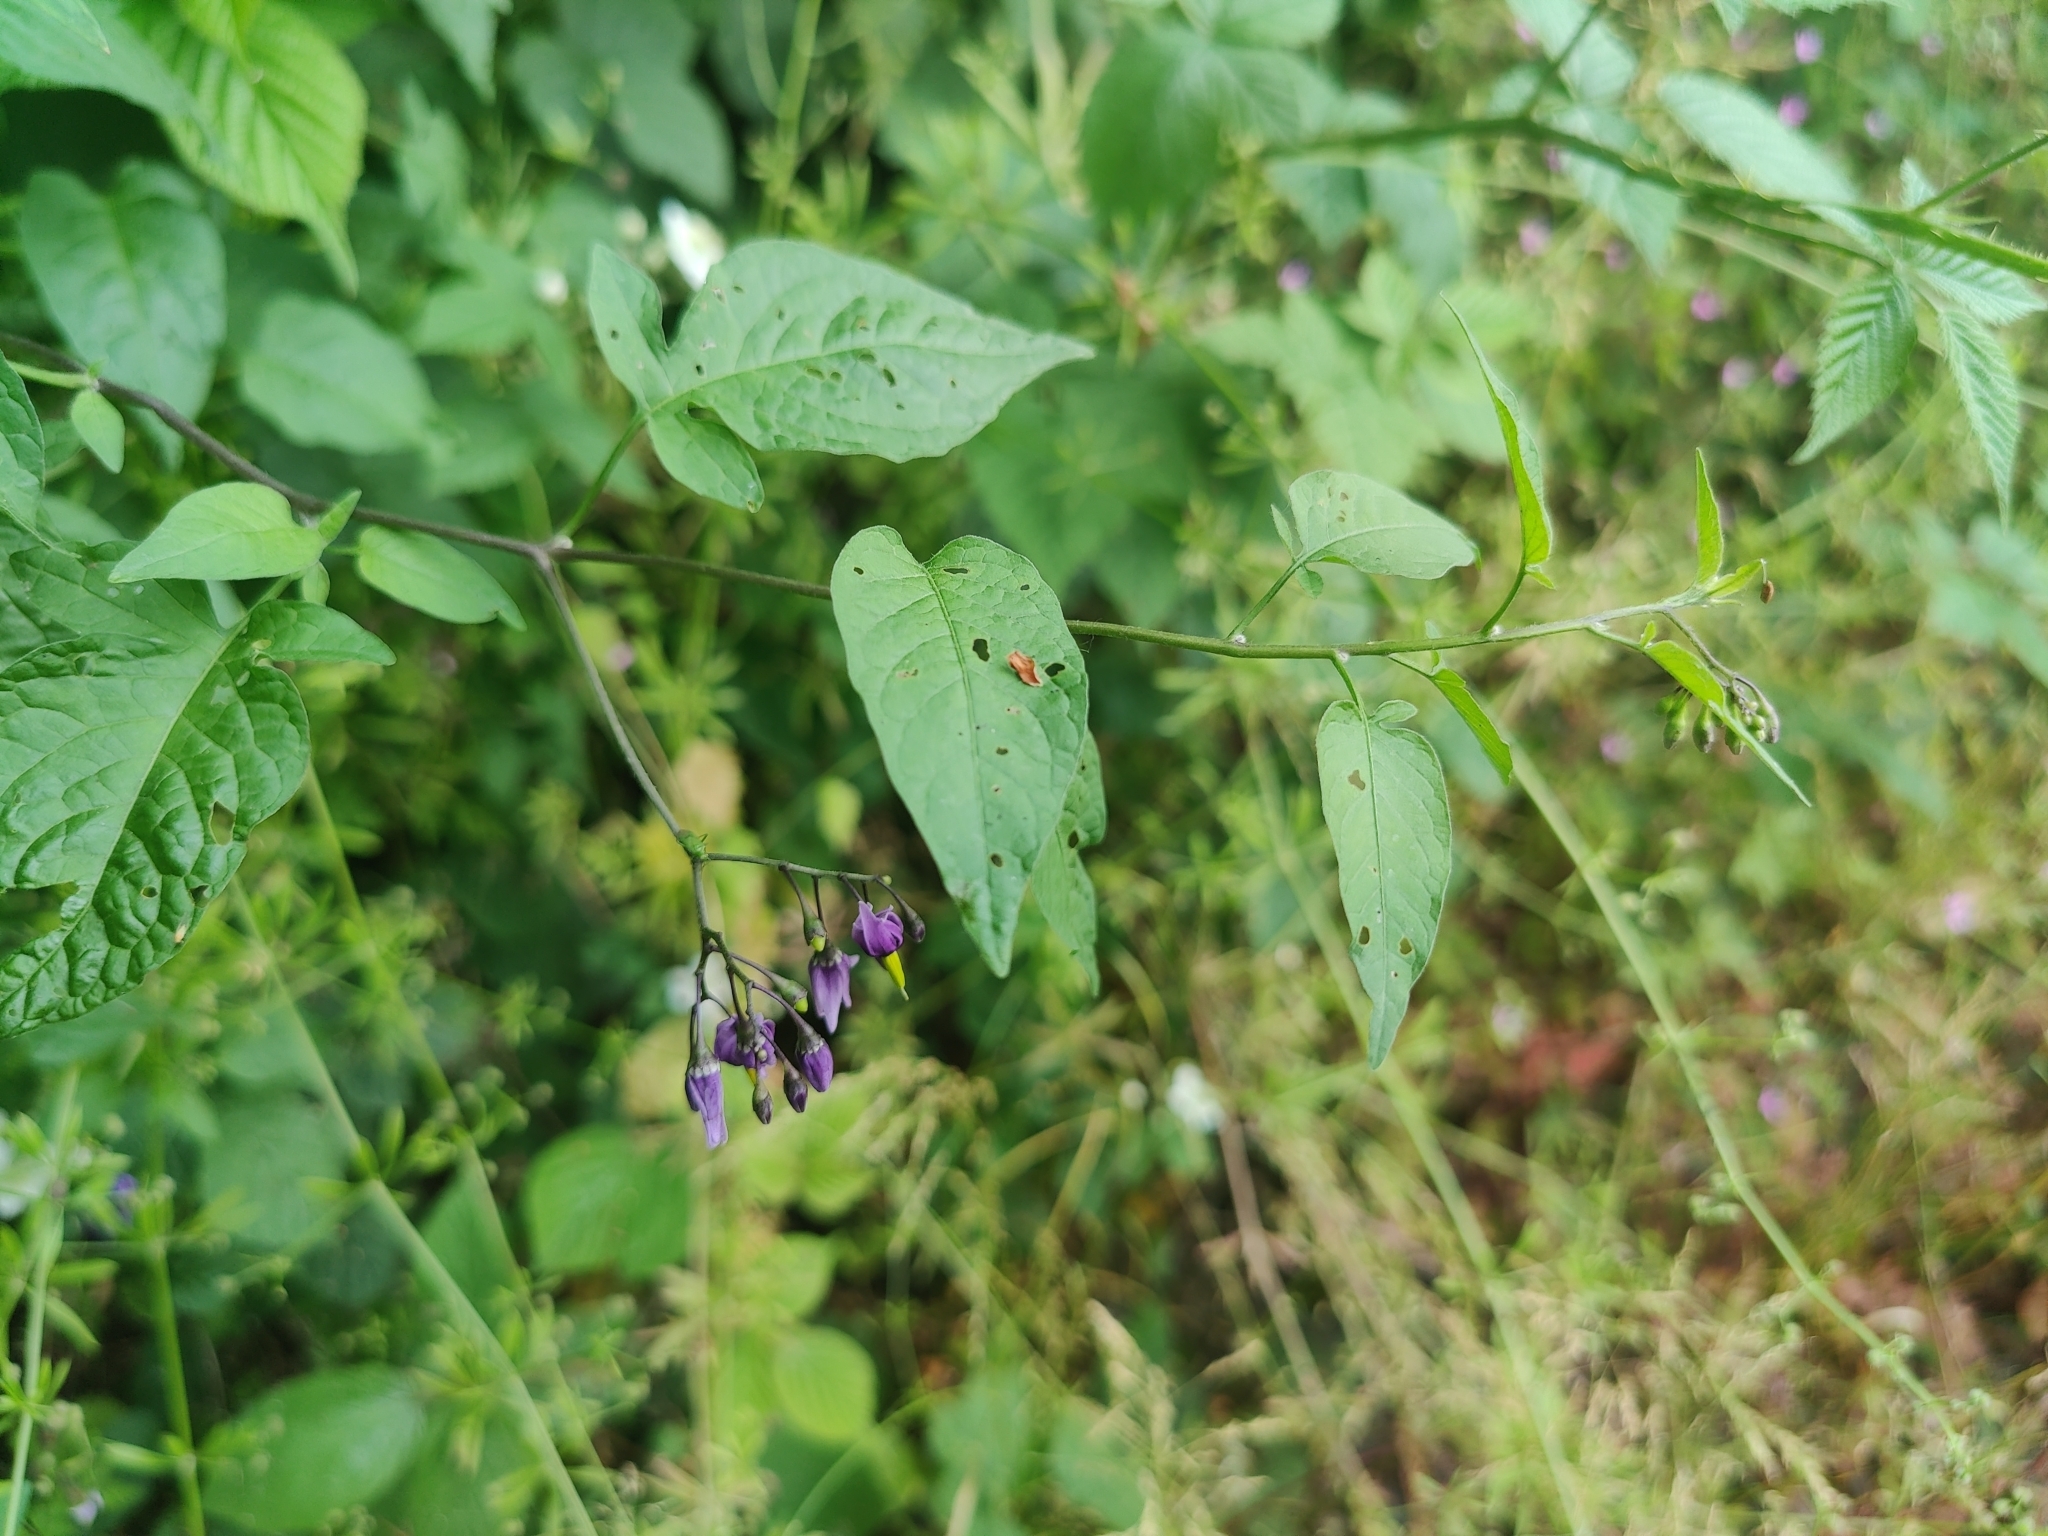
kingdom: Plantae
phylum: Tracheophyta
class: Magnoliopsida
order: Solanales
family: Solanaceae
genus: Solanum
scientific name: Solanum dulcamara
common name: Climbing nightshade
